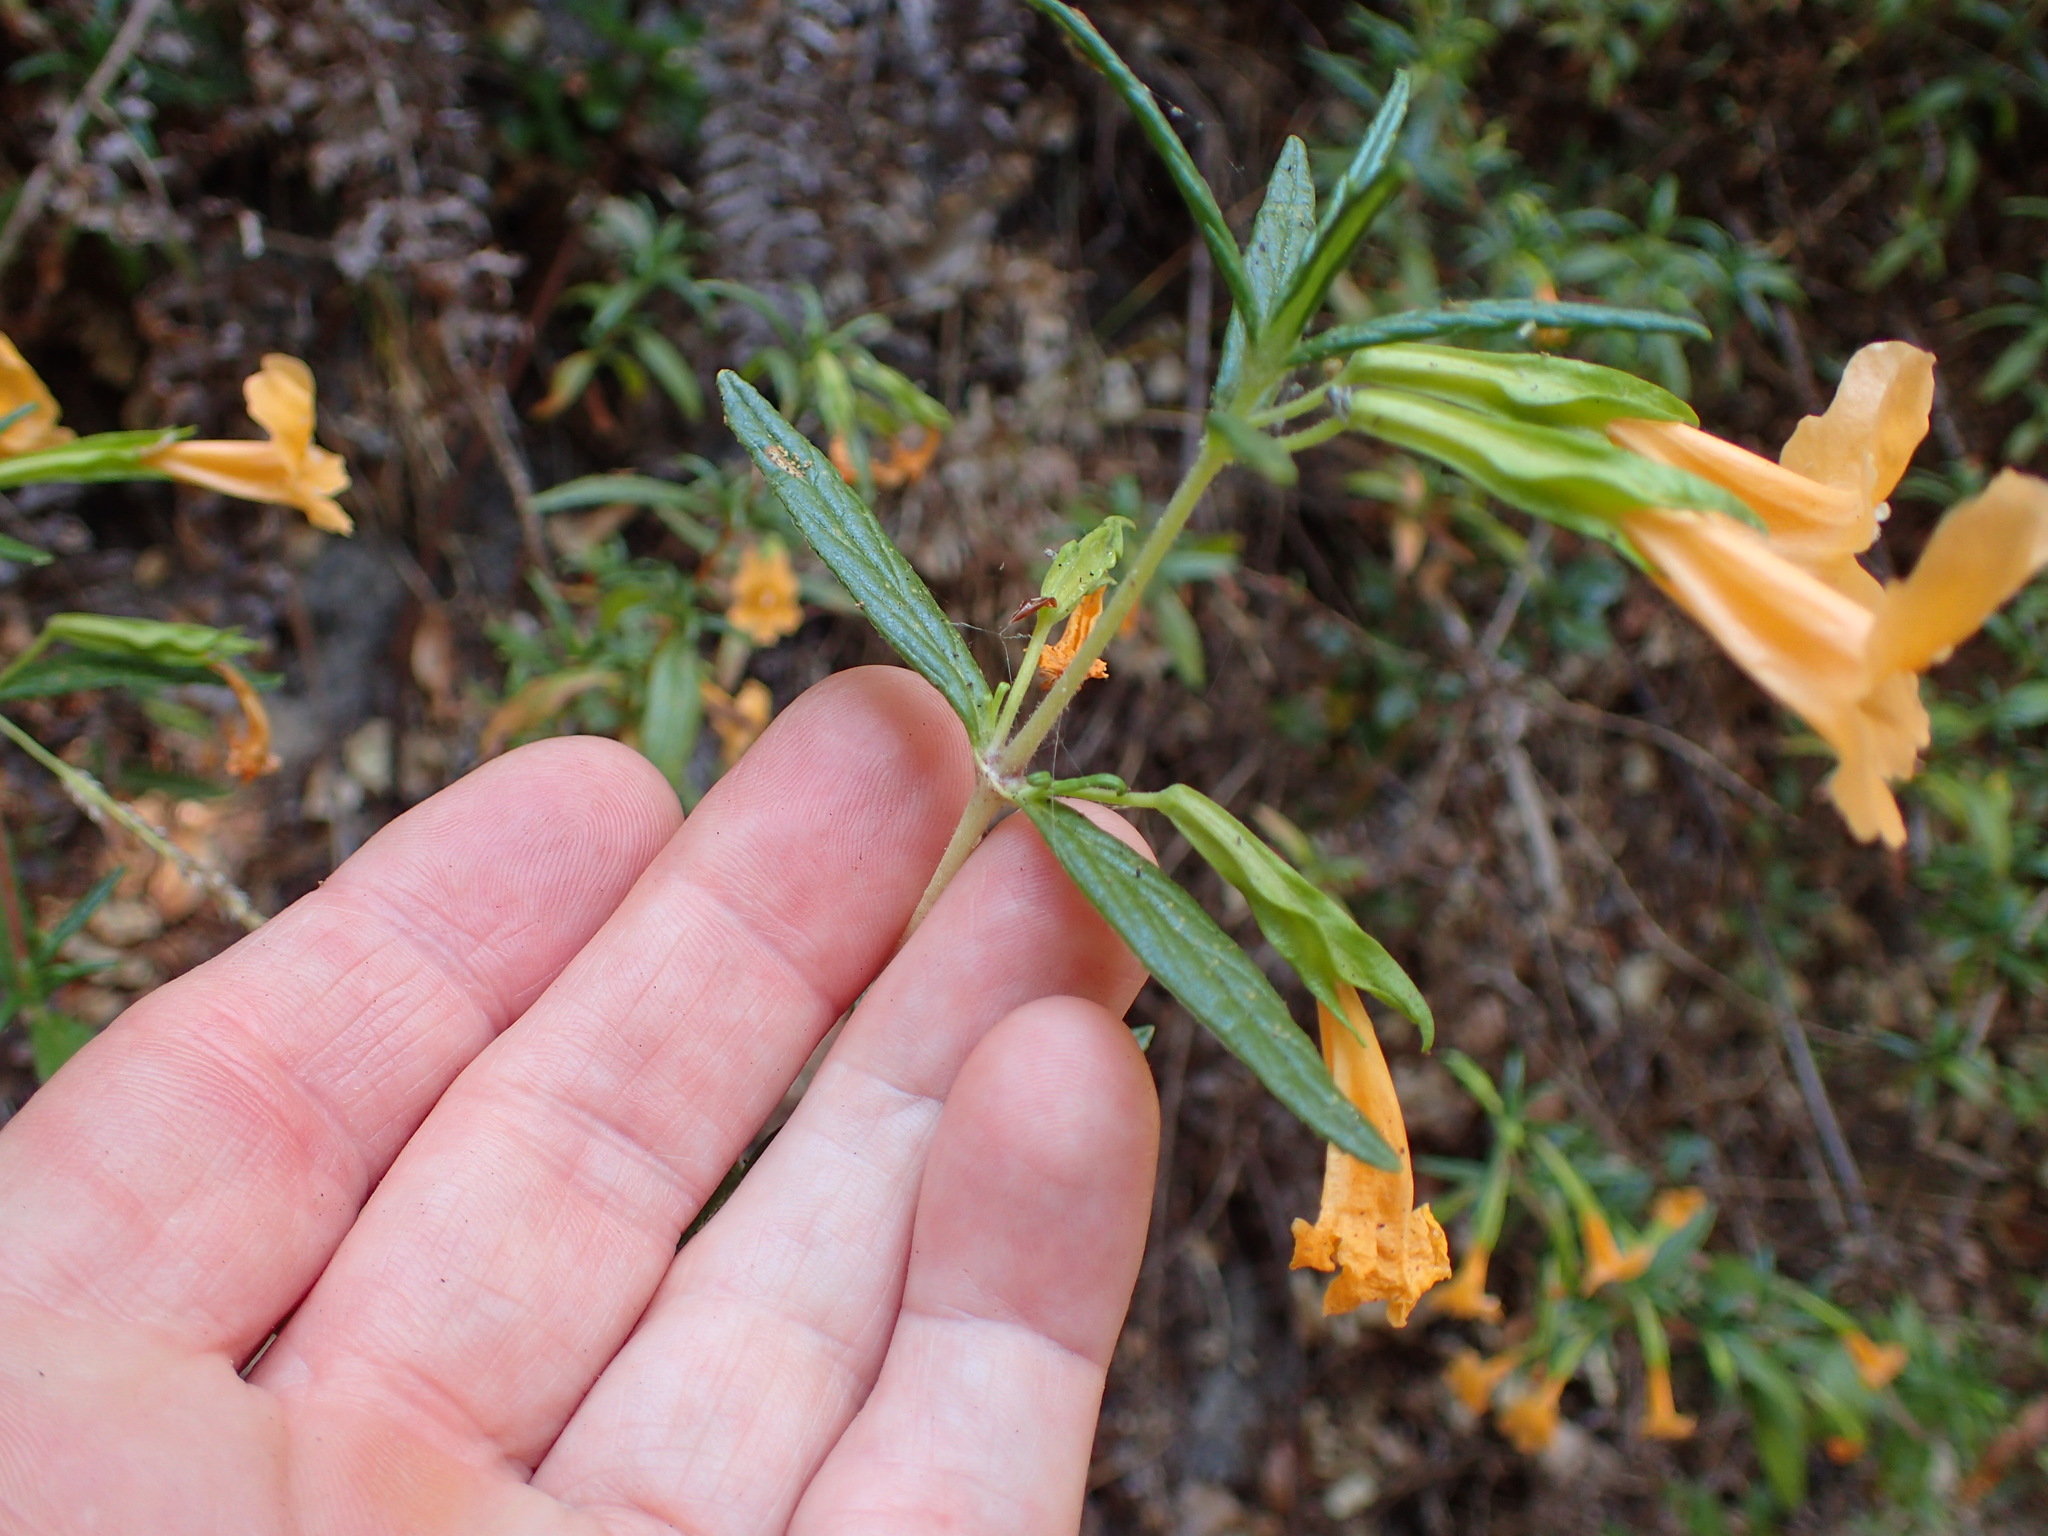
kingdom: Plantae
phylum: Tracheophyta
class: Magnoliopsida
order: Lamiales
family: Phrymaceae
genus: Diplacus
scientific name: Diplacus aurantiacus
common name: Bush monkey-flower
